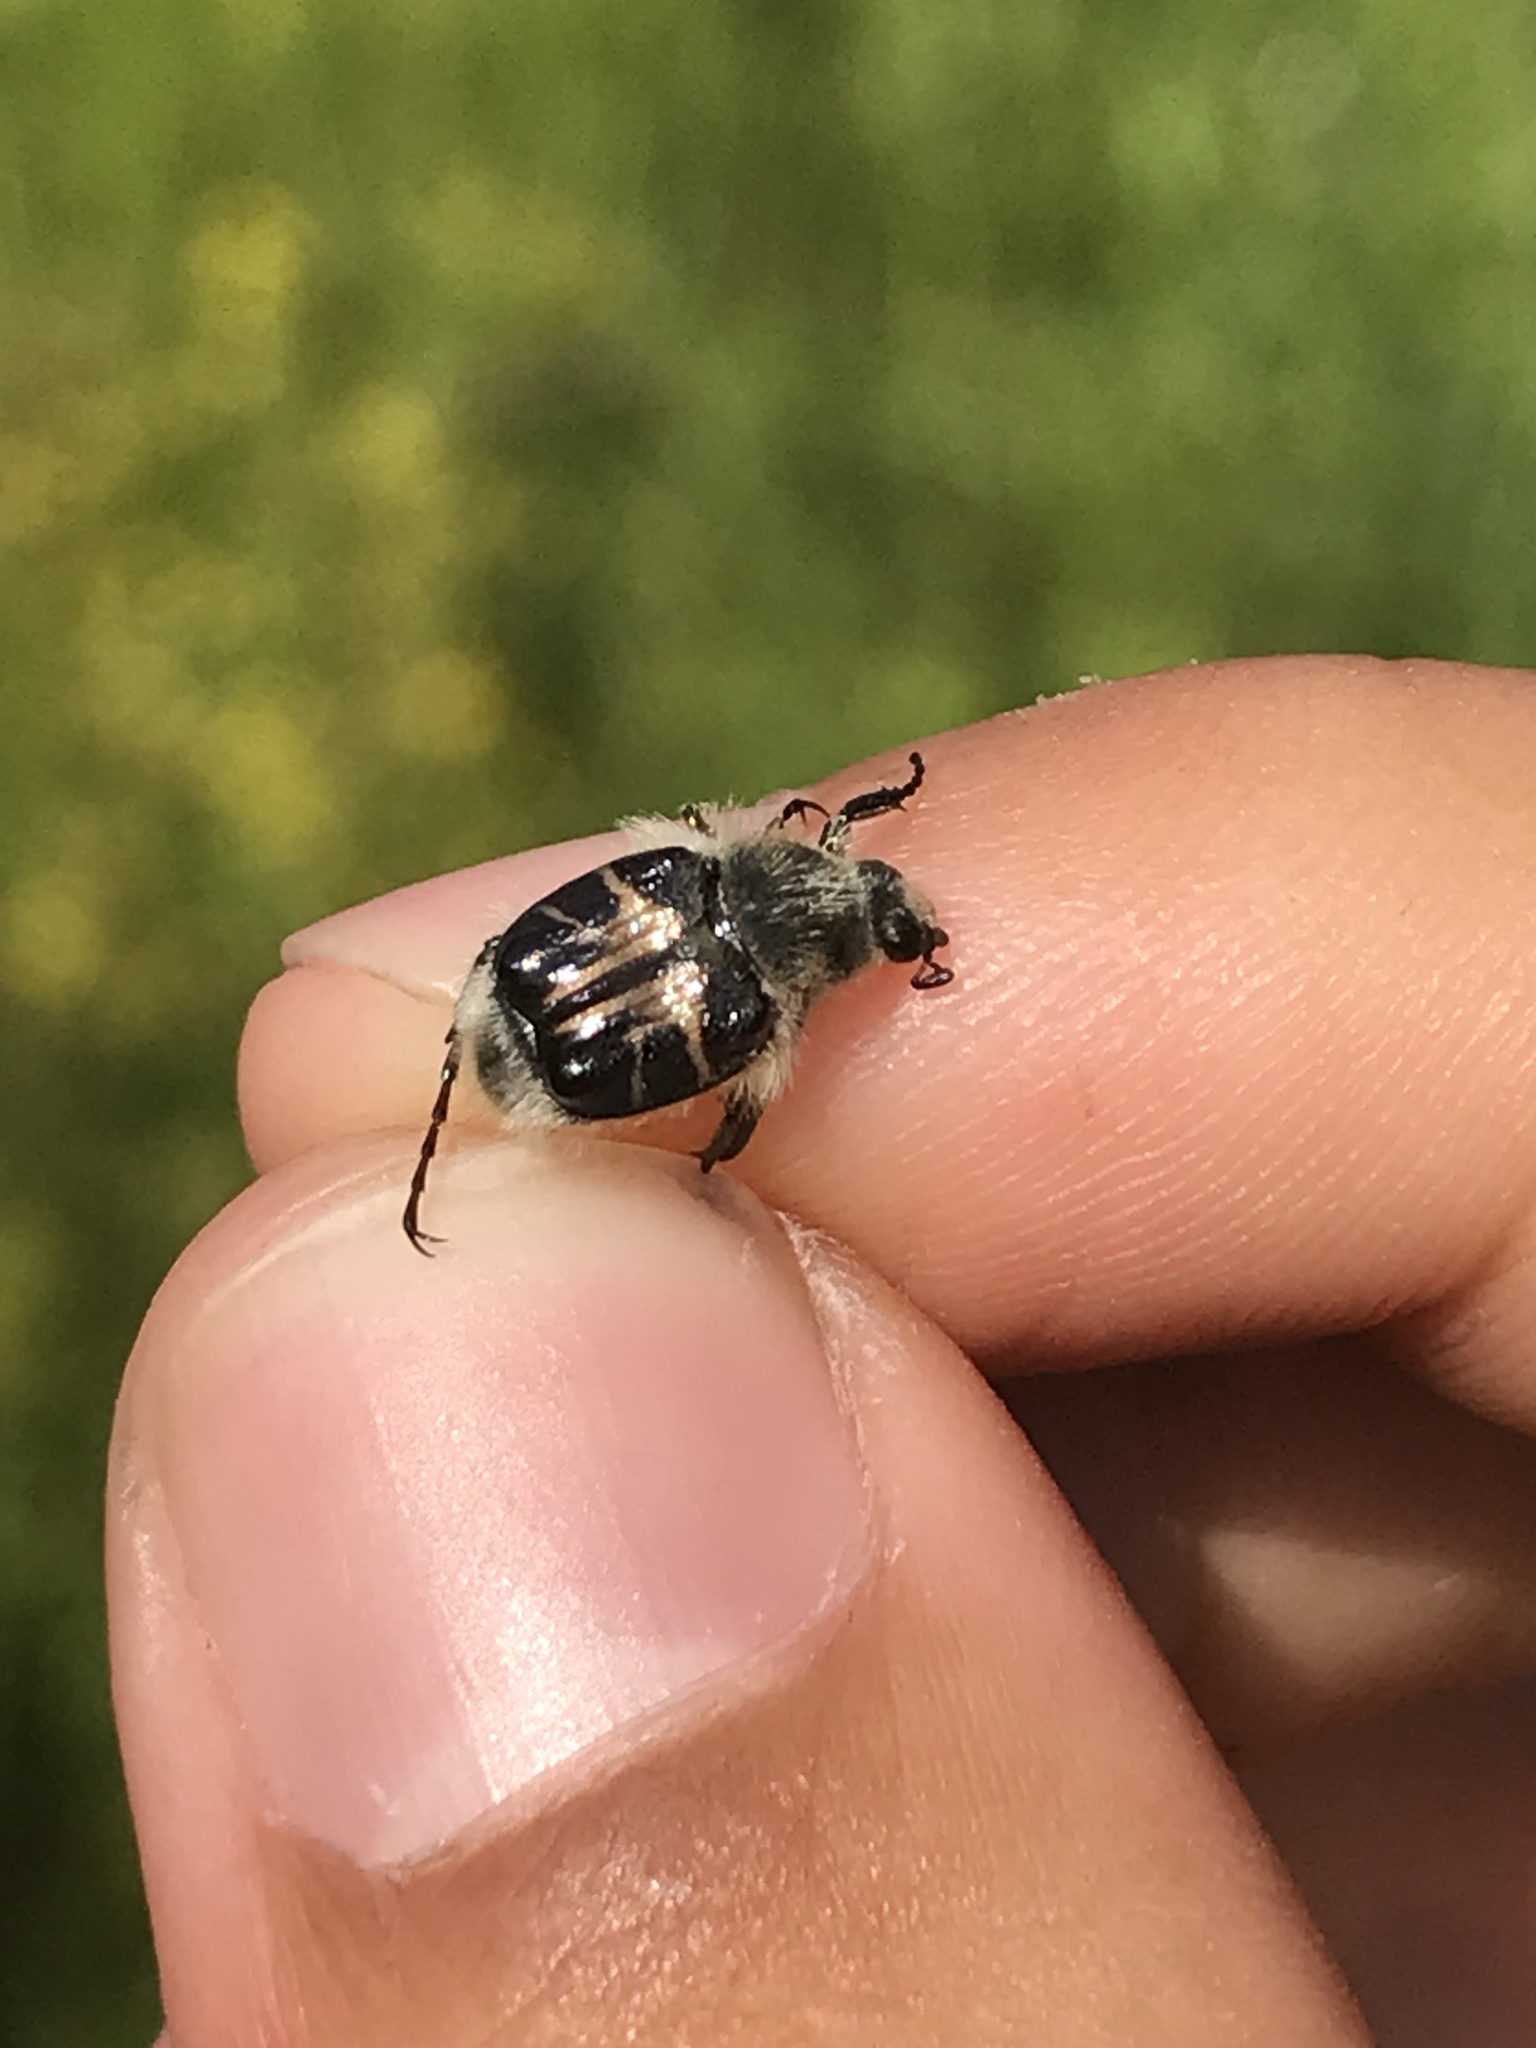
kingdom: Animalia
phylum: Arthropoda
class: Insecta
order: Coleoptera
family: Scarabaeidae
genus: Trichiotinus
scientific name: Trichiotinus assimilis
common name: Bee-mimic beetle
